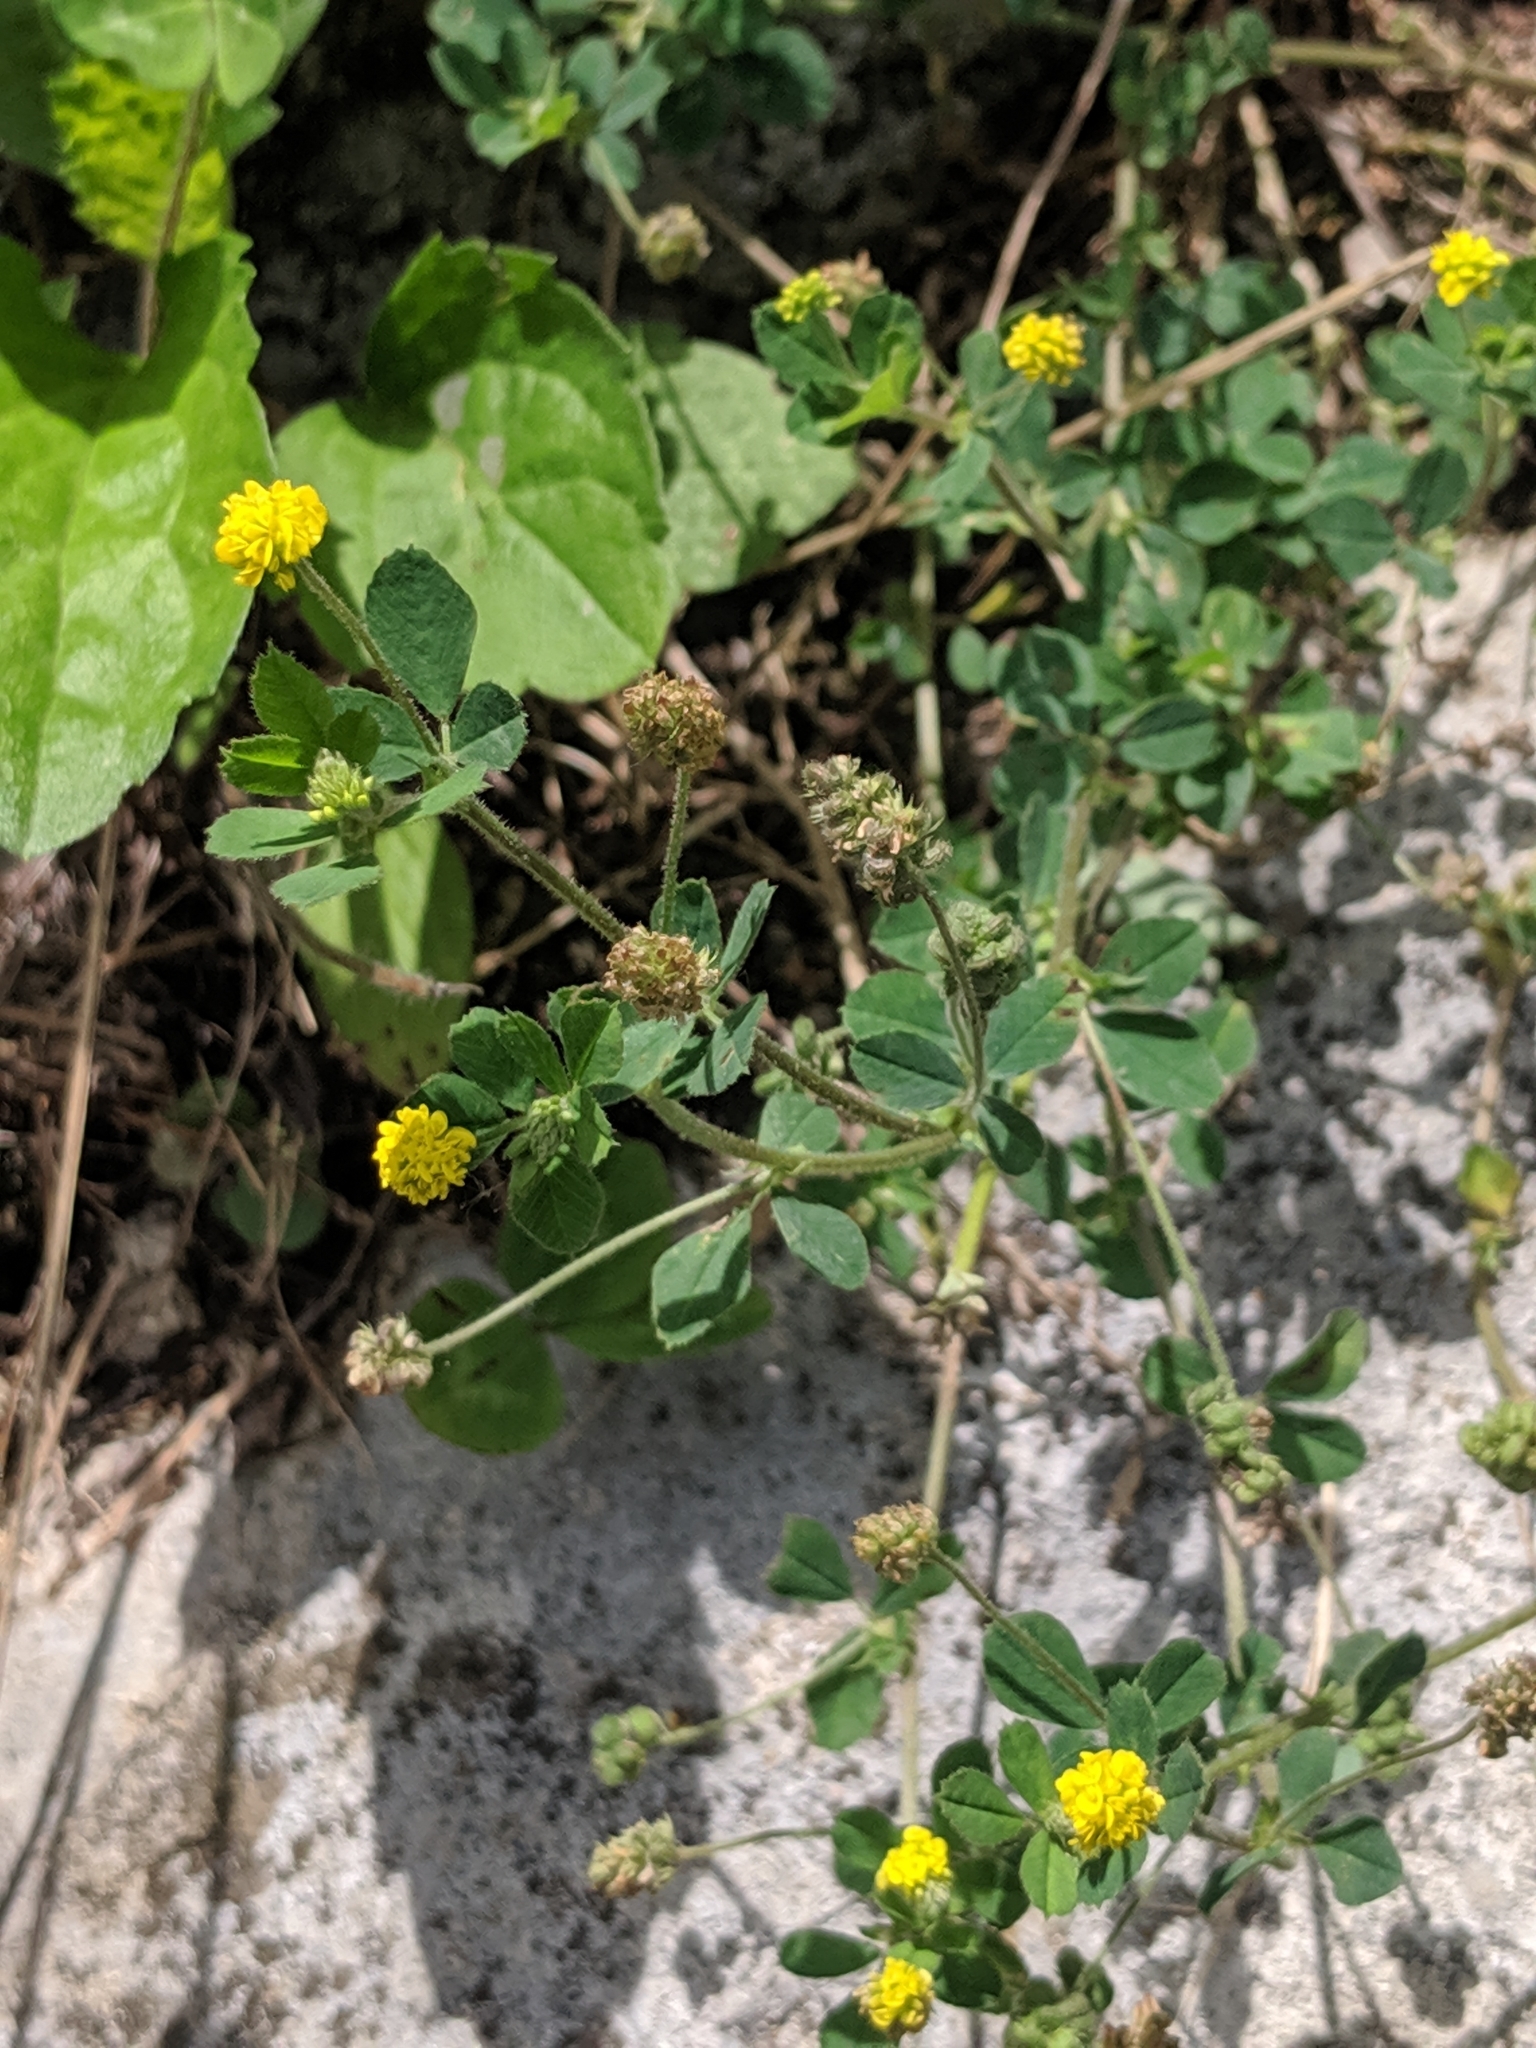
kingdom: Plantae
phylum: Tracheophyta
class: Magnoliopsida
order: Fabales
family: Fabaceae
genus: Medicago
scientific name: Medicago lupulina
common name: Black medick
